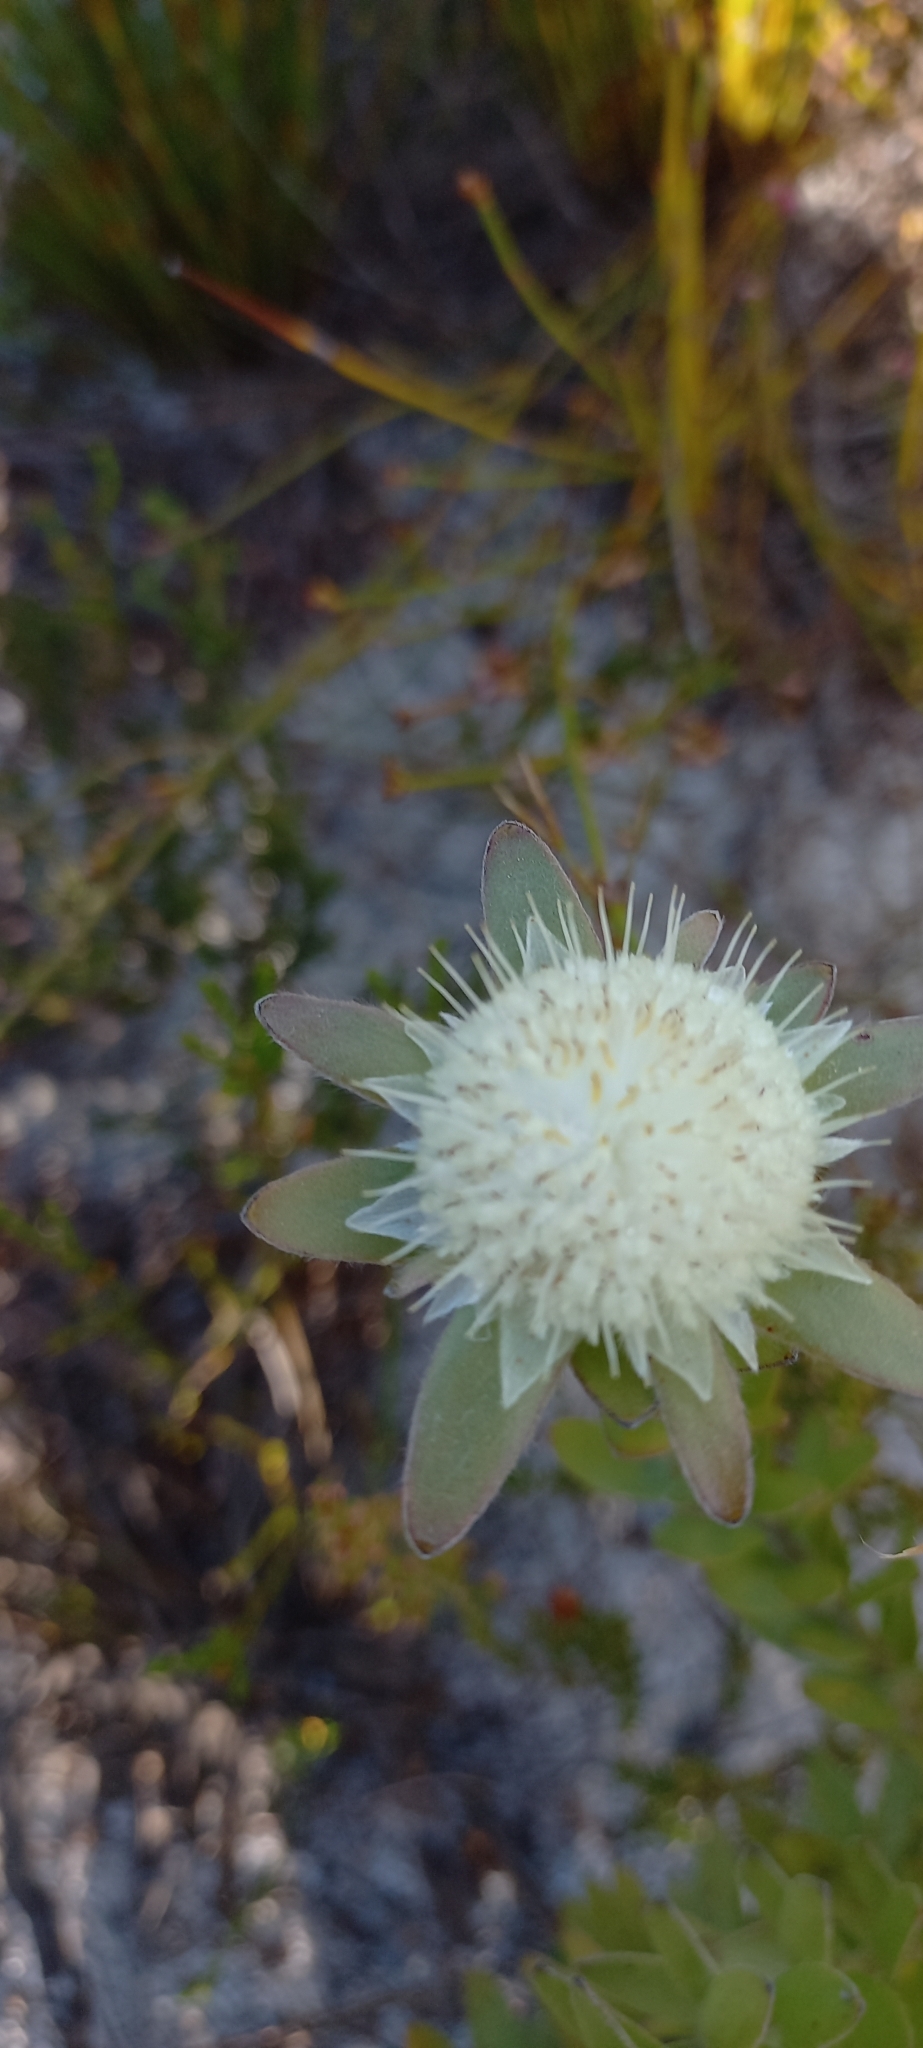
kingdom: Plantae
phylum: Tracheophyta
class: Magnoliopsida
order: Proteales
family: Proteaceae
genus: Diastella
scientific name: Diastella thymelaeoides
